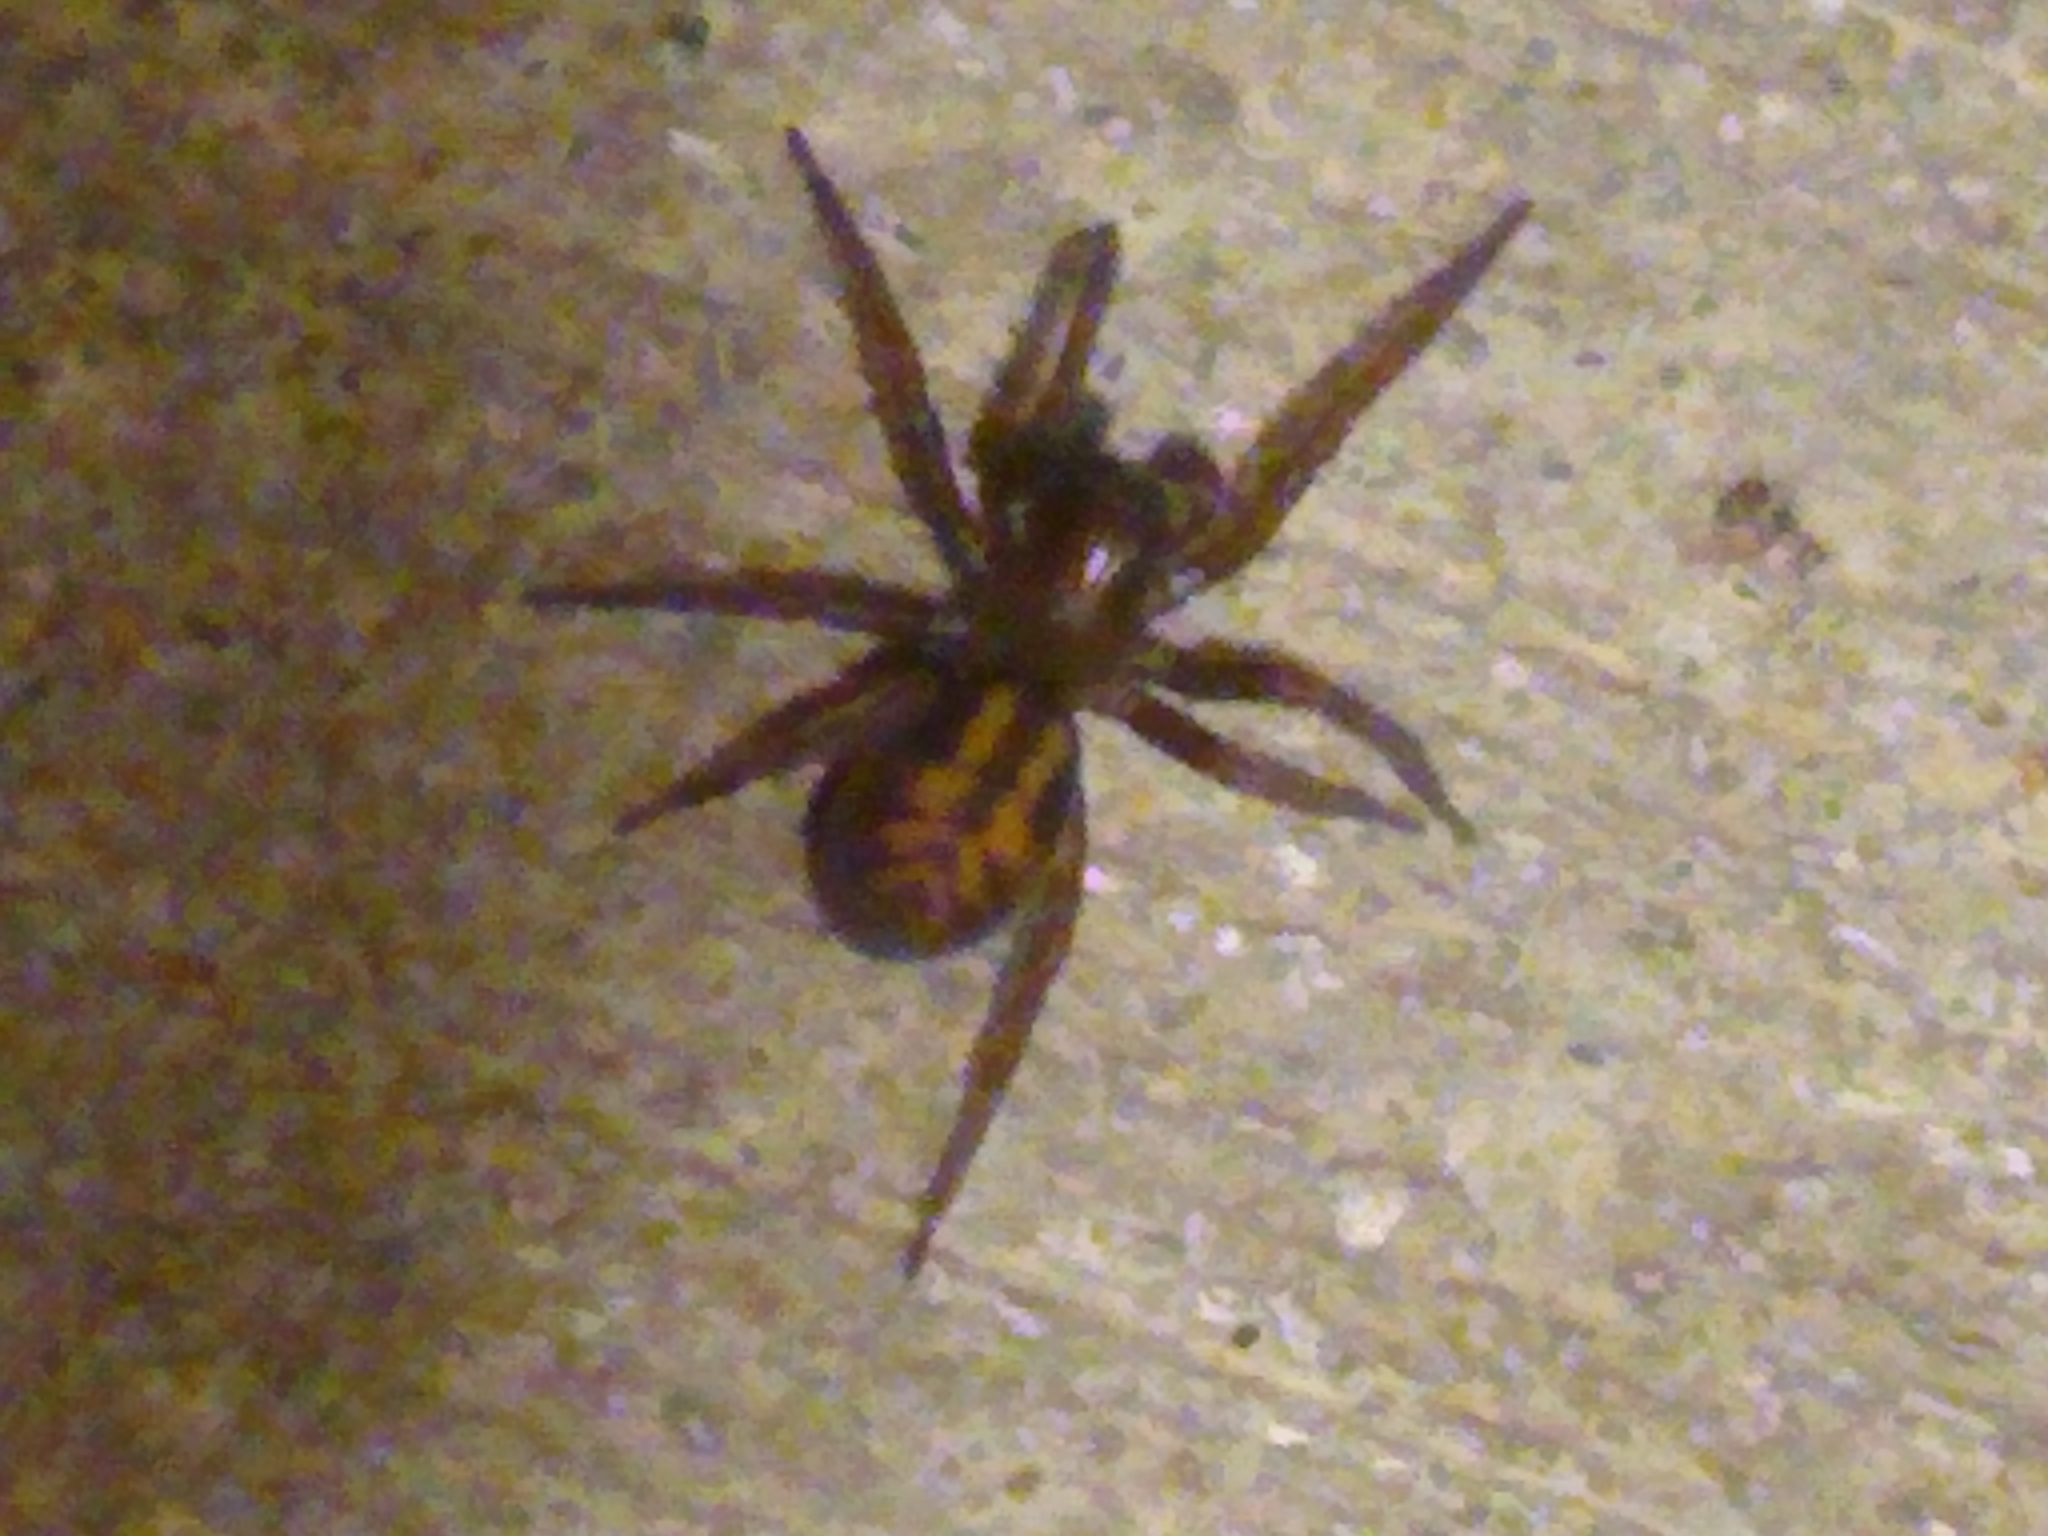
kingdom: Animalia
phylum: Arthropoda
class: Arachnida
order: Araneae
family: Amaurobiidae
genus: Callobius
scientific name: Callobius bennetti
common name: Bennett's laceweaver
